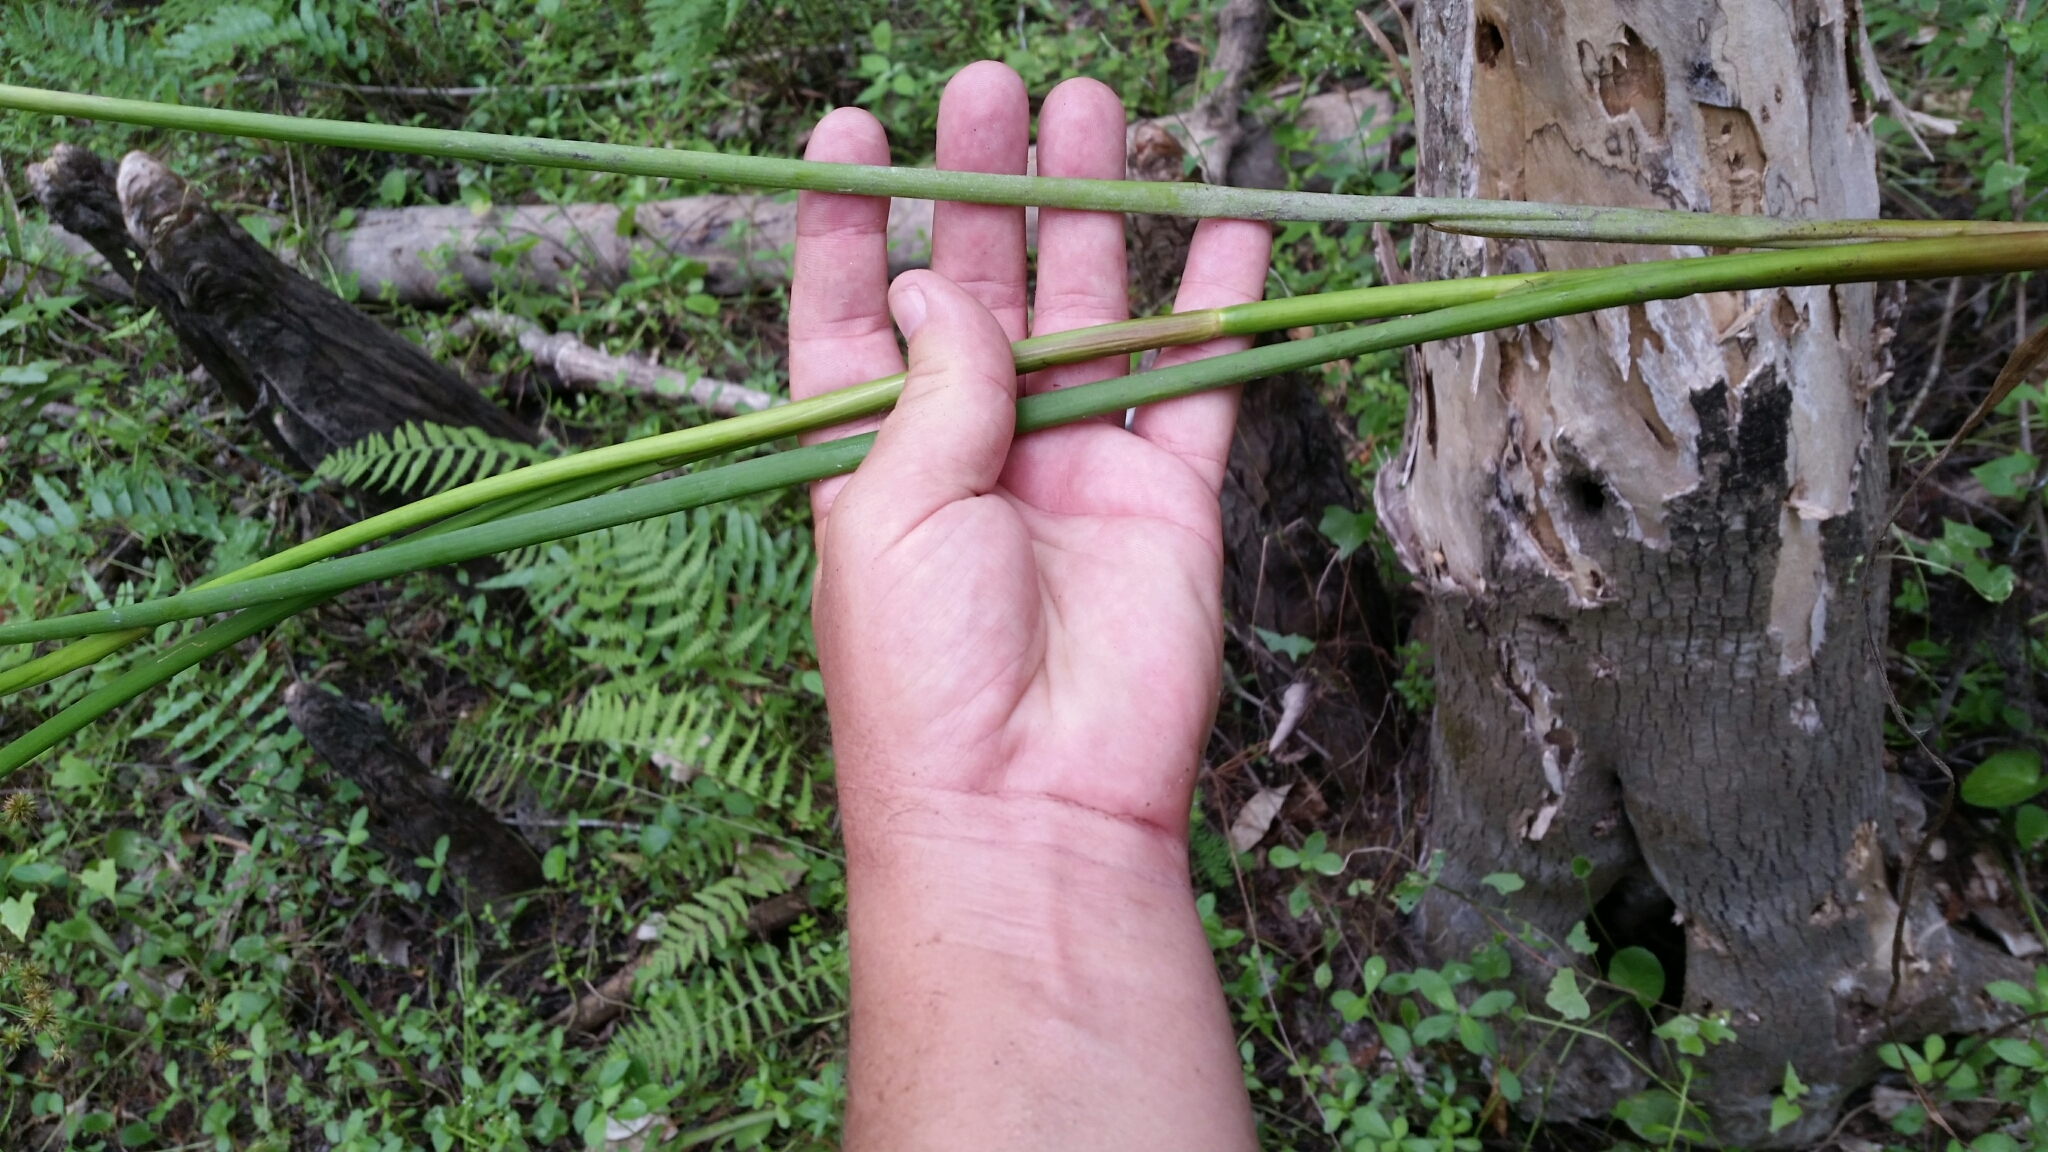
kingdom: Plantae
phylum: Tracheophyta
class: Liliopsida
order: Poales
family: Juncaceae
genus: Juncus
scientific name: Juncus paludosus
